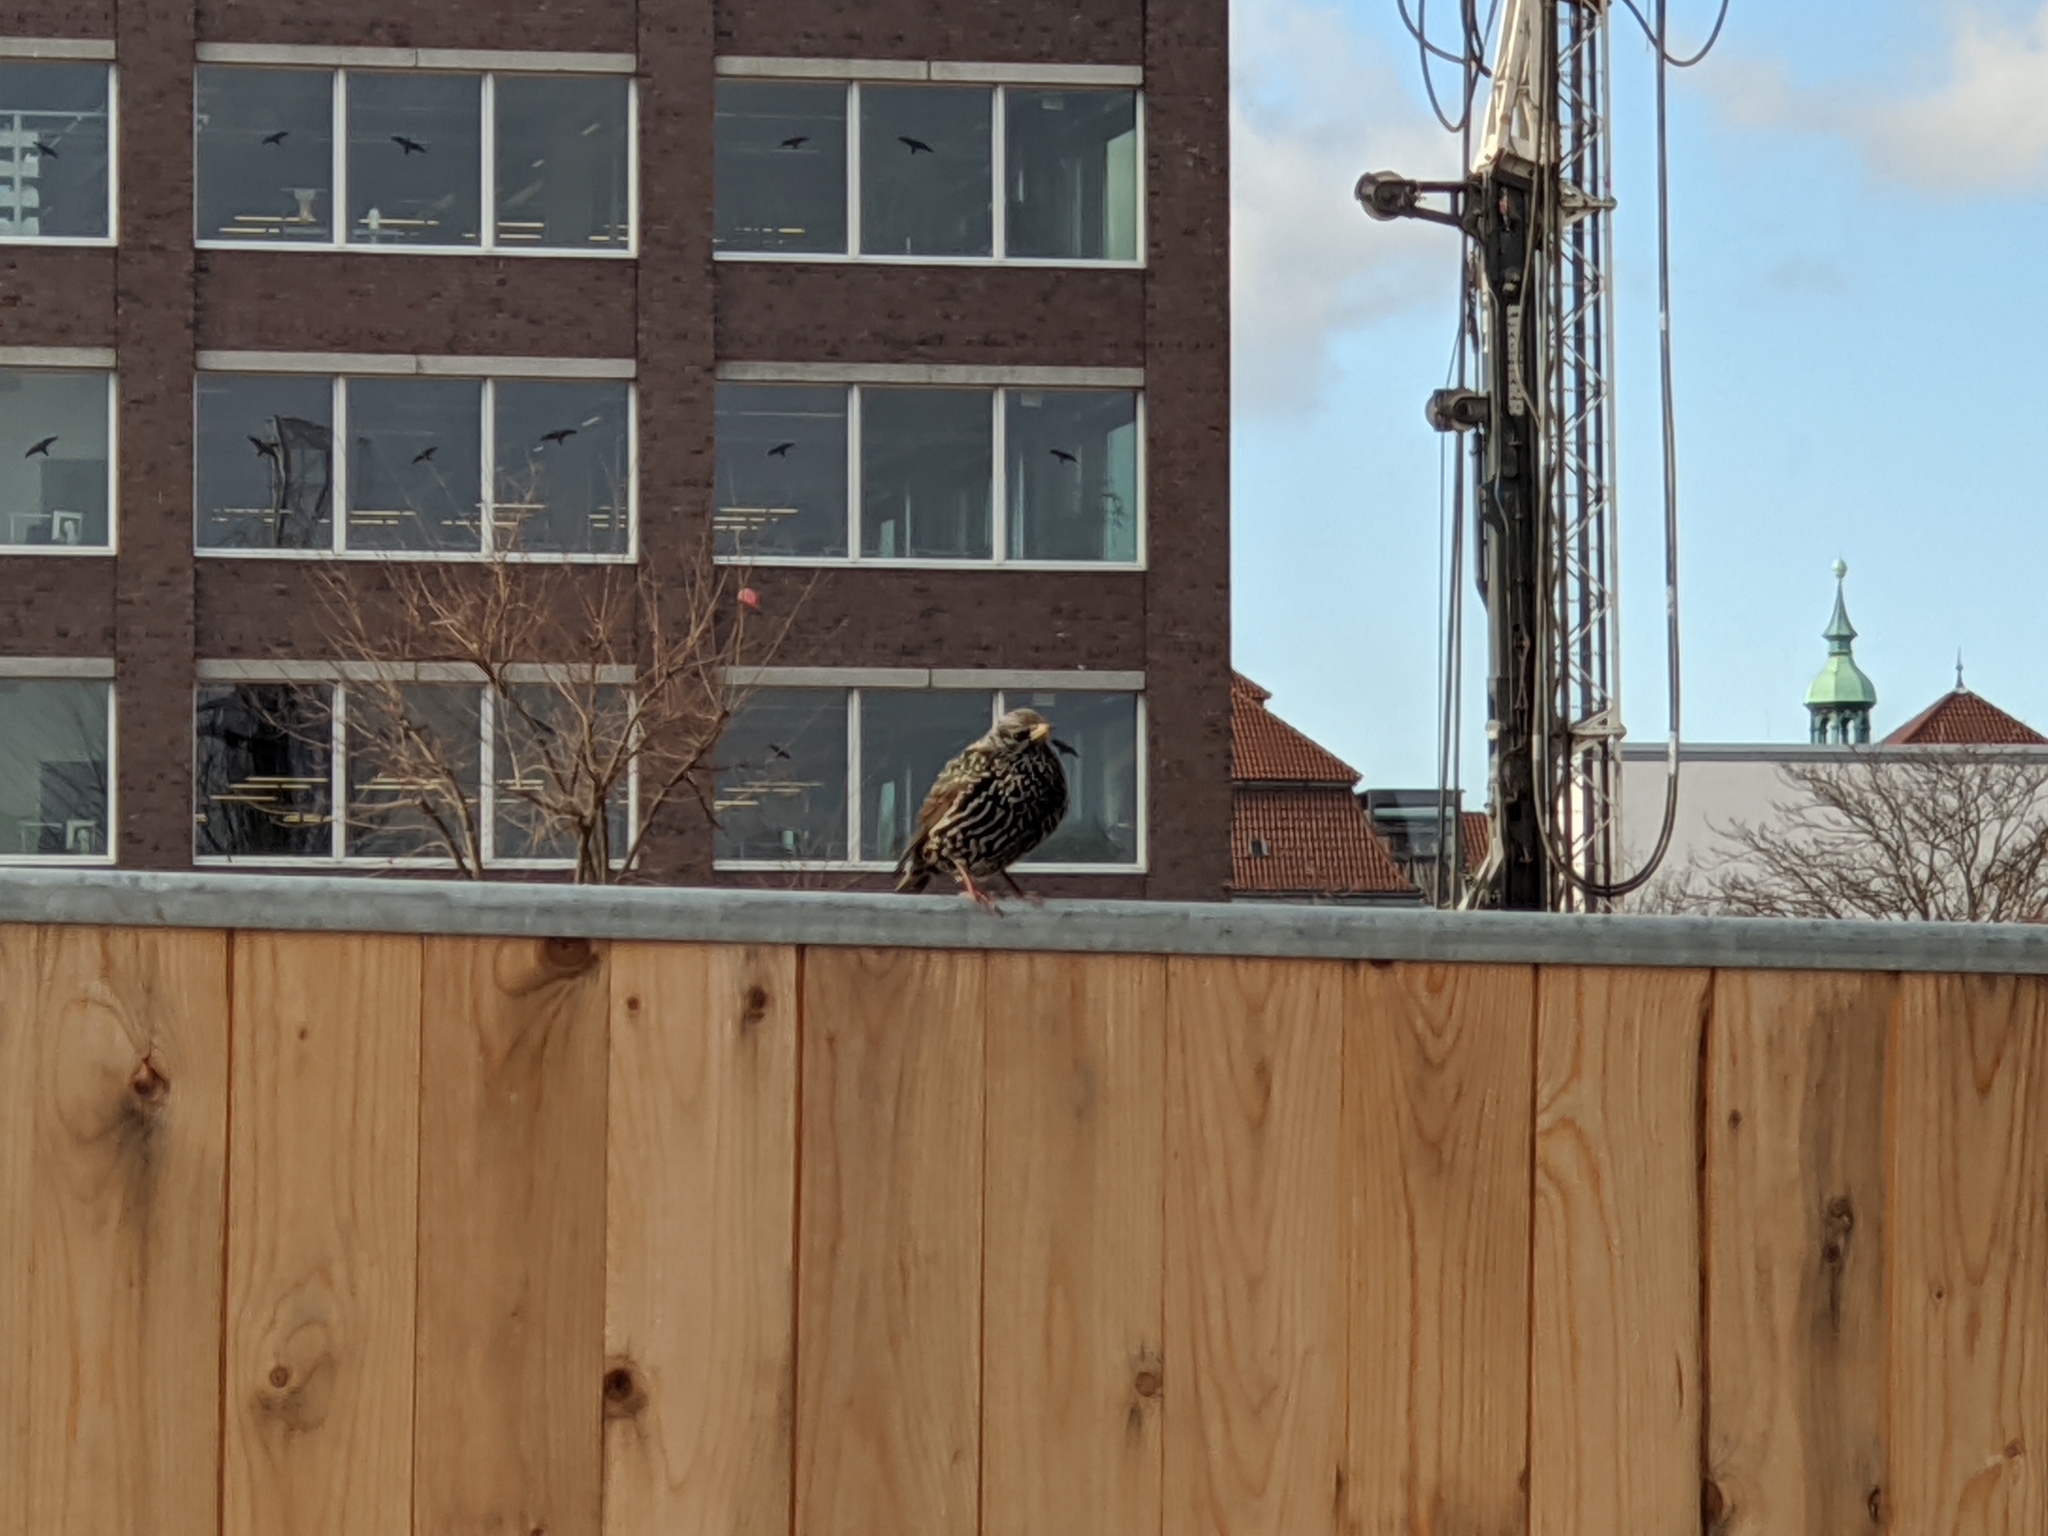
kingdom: Animalia
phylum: Chordata
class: Aves
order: Passeriformes
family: Sturnidae
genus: Sturnus
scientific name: Sturnus vulgaris
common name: Common starling
